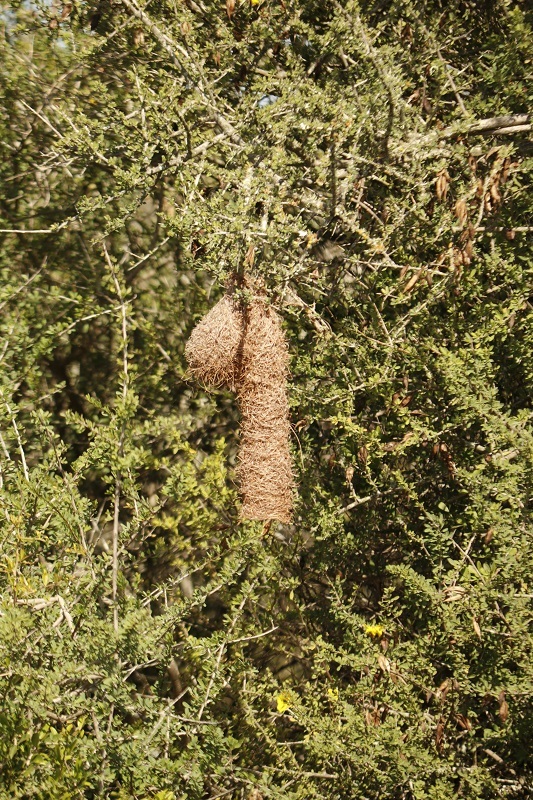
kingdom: Animalia
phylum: Chordata
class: Aves
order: Passeriformes
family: Ploceidae
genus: Ploceus
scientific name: Ploceus ocularis
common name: Spectacled weaver
